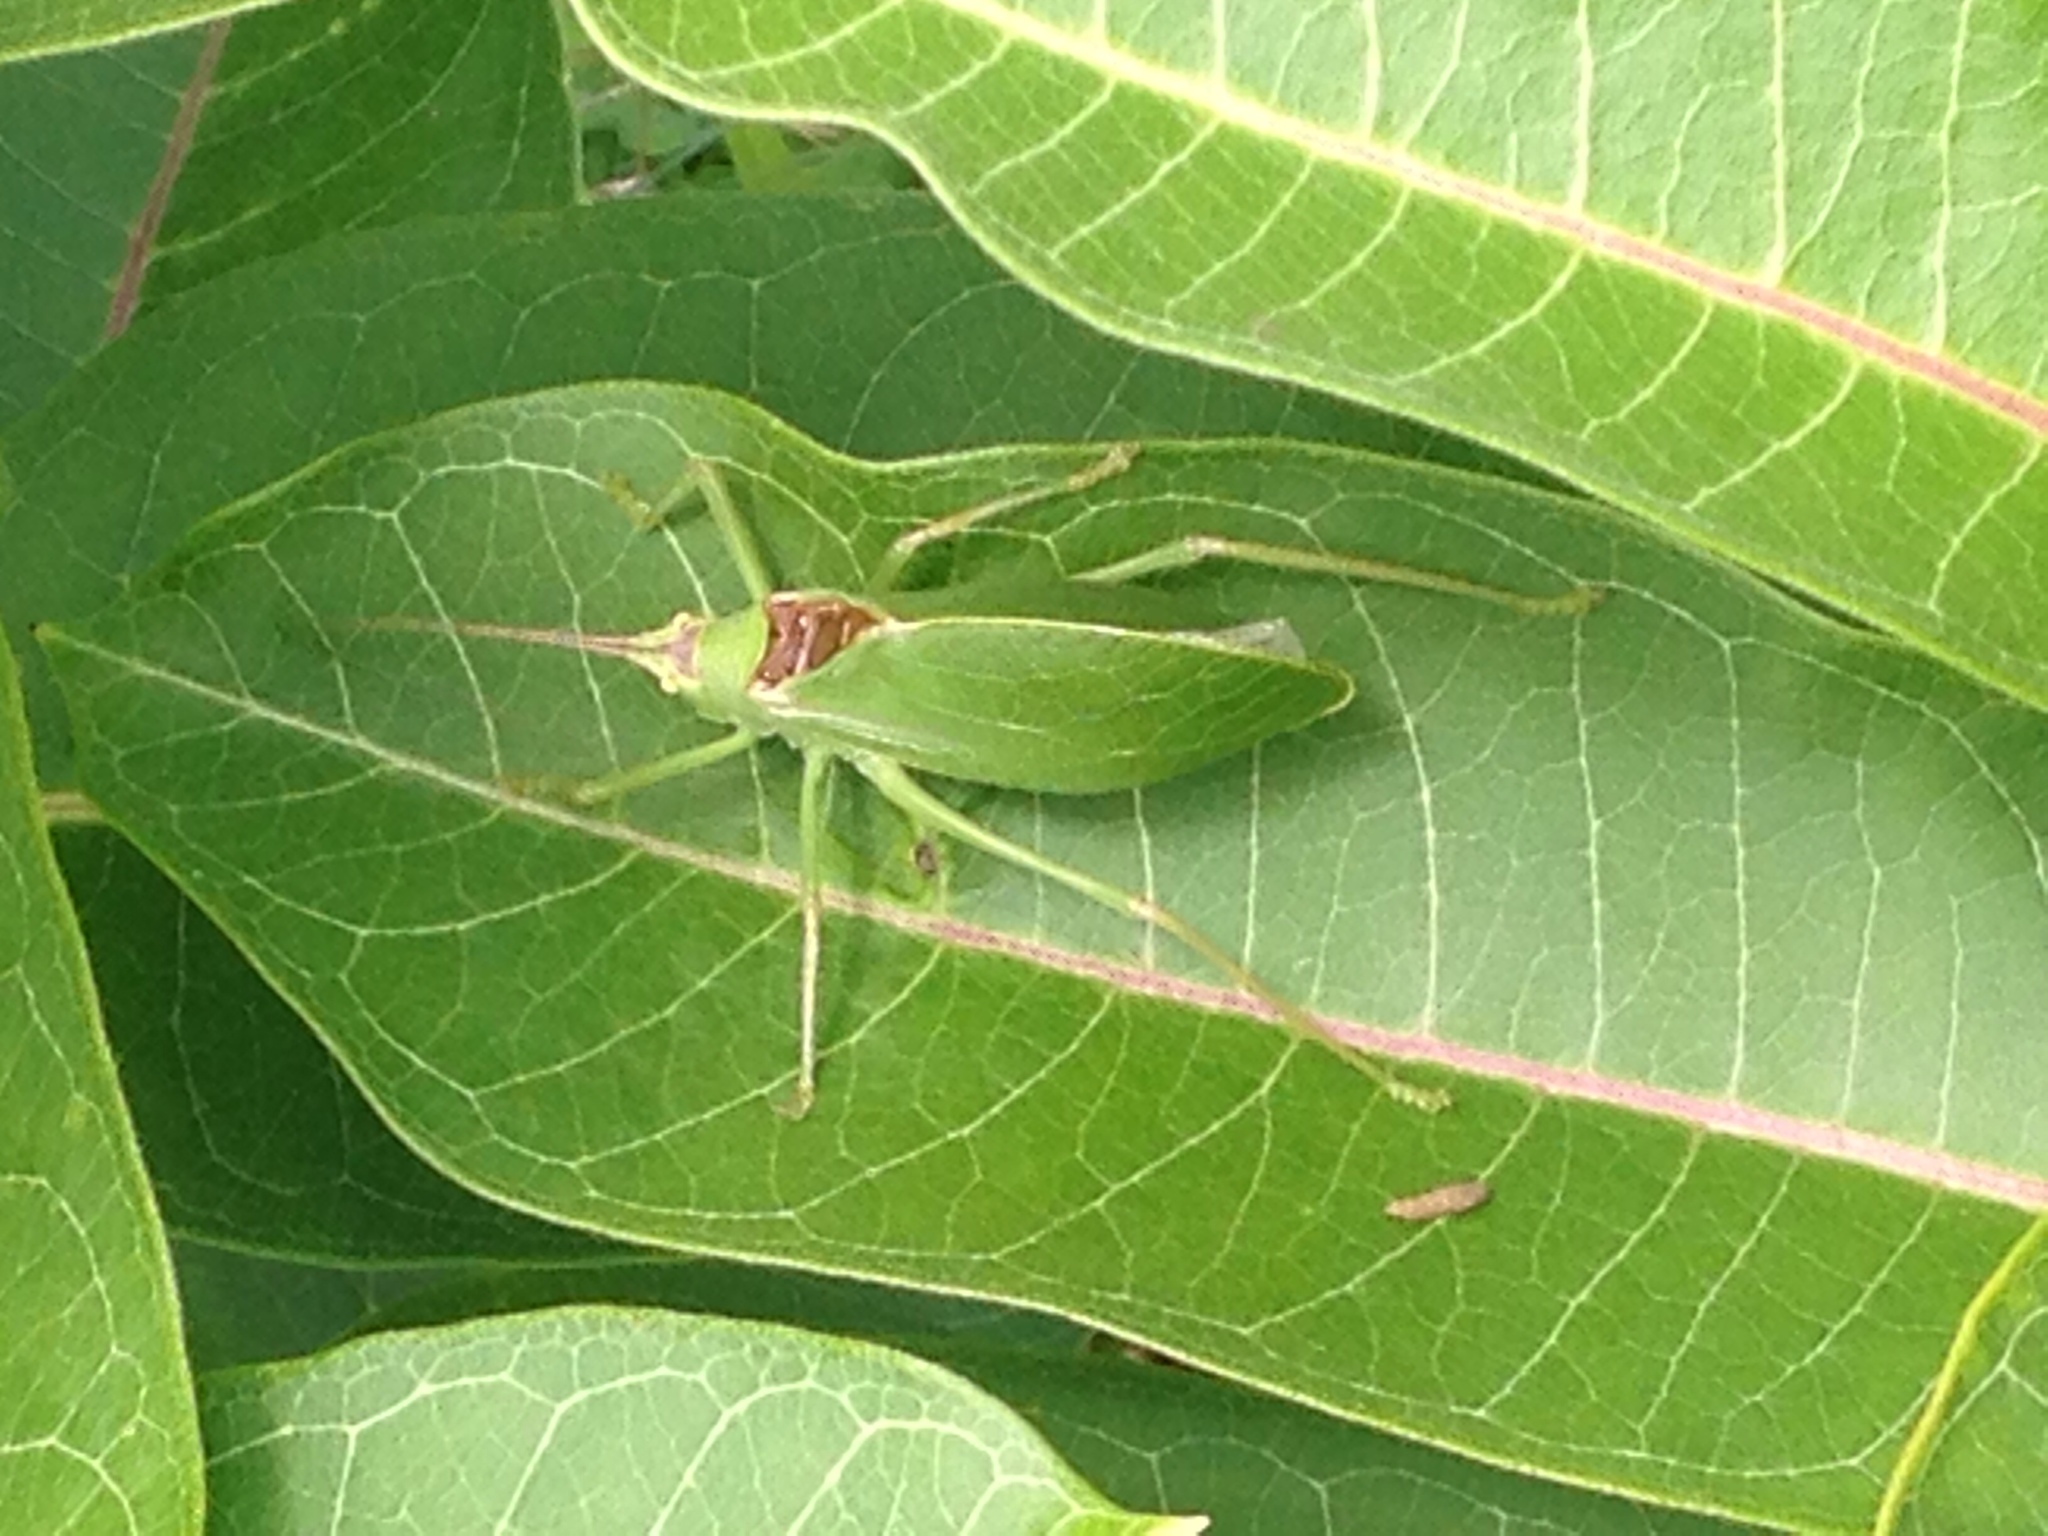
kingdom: Animalia
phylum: Arthropoda
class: Insecta
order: Orthoptera
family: Tettigoniidae
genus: Pterophylla
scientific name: Pterophylla camellifolia
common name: Common true katydid
